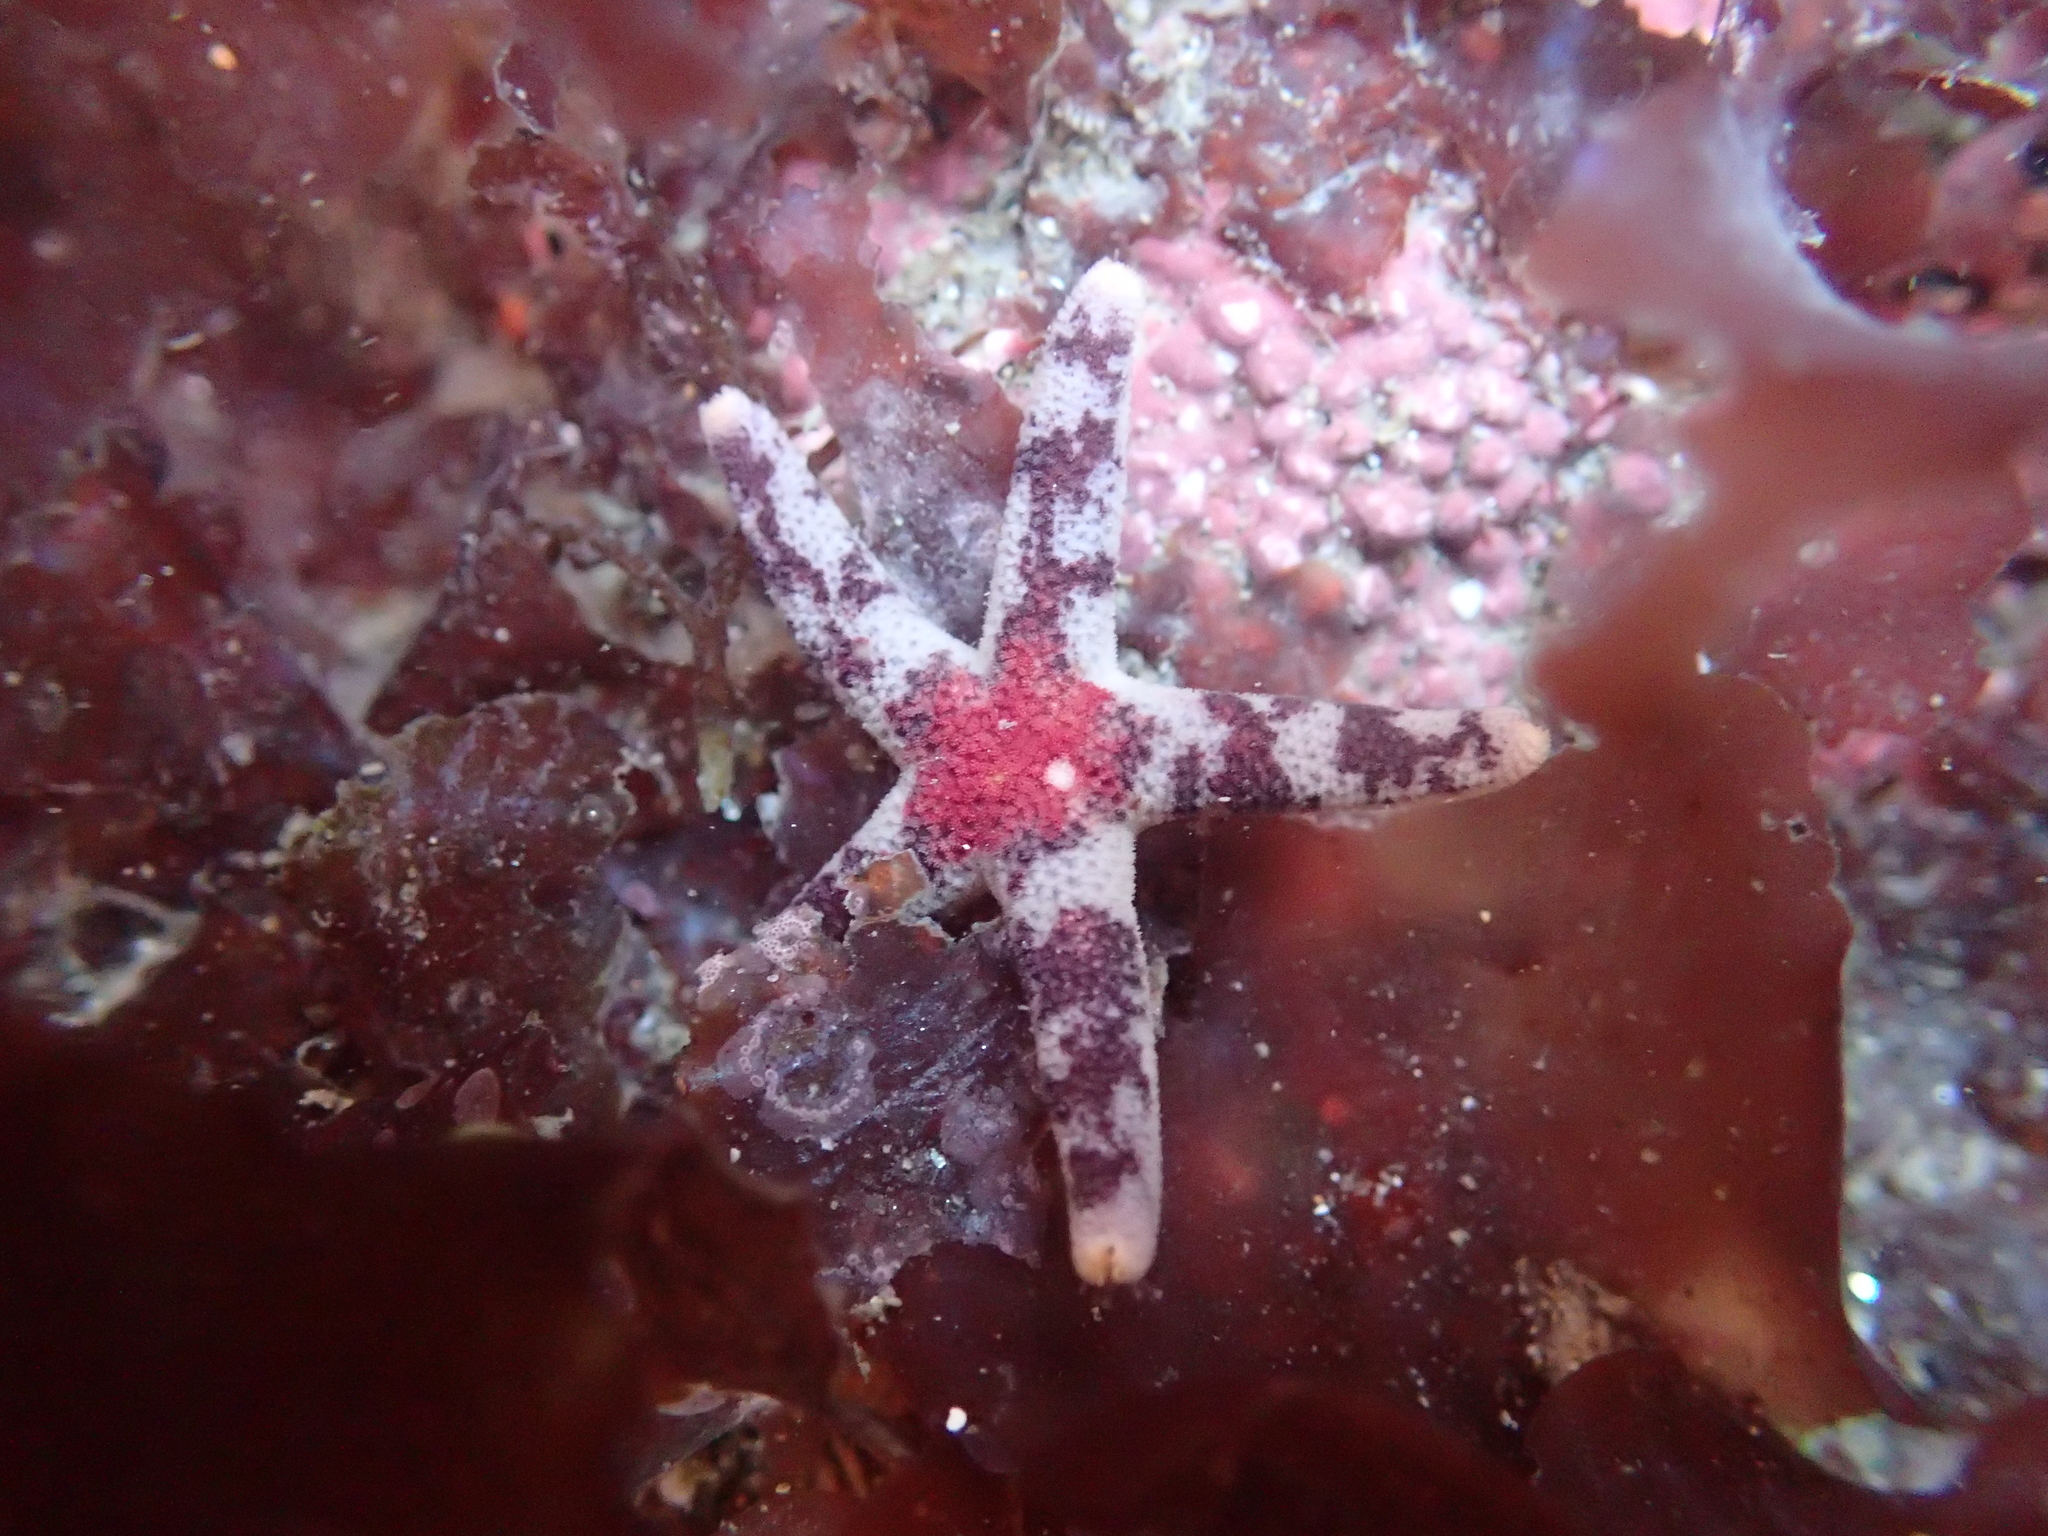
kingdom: Animalia
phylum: Echinodermata
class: Asteroidea
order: Spinulosida
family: Echinasteridae
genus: Henricia
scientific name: Henricia pumila
